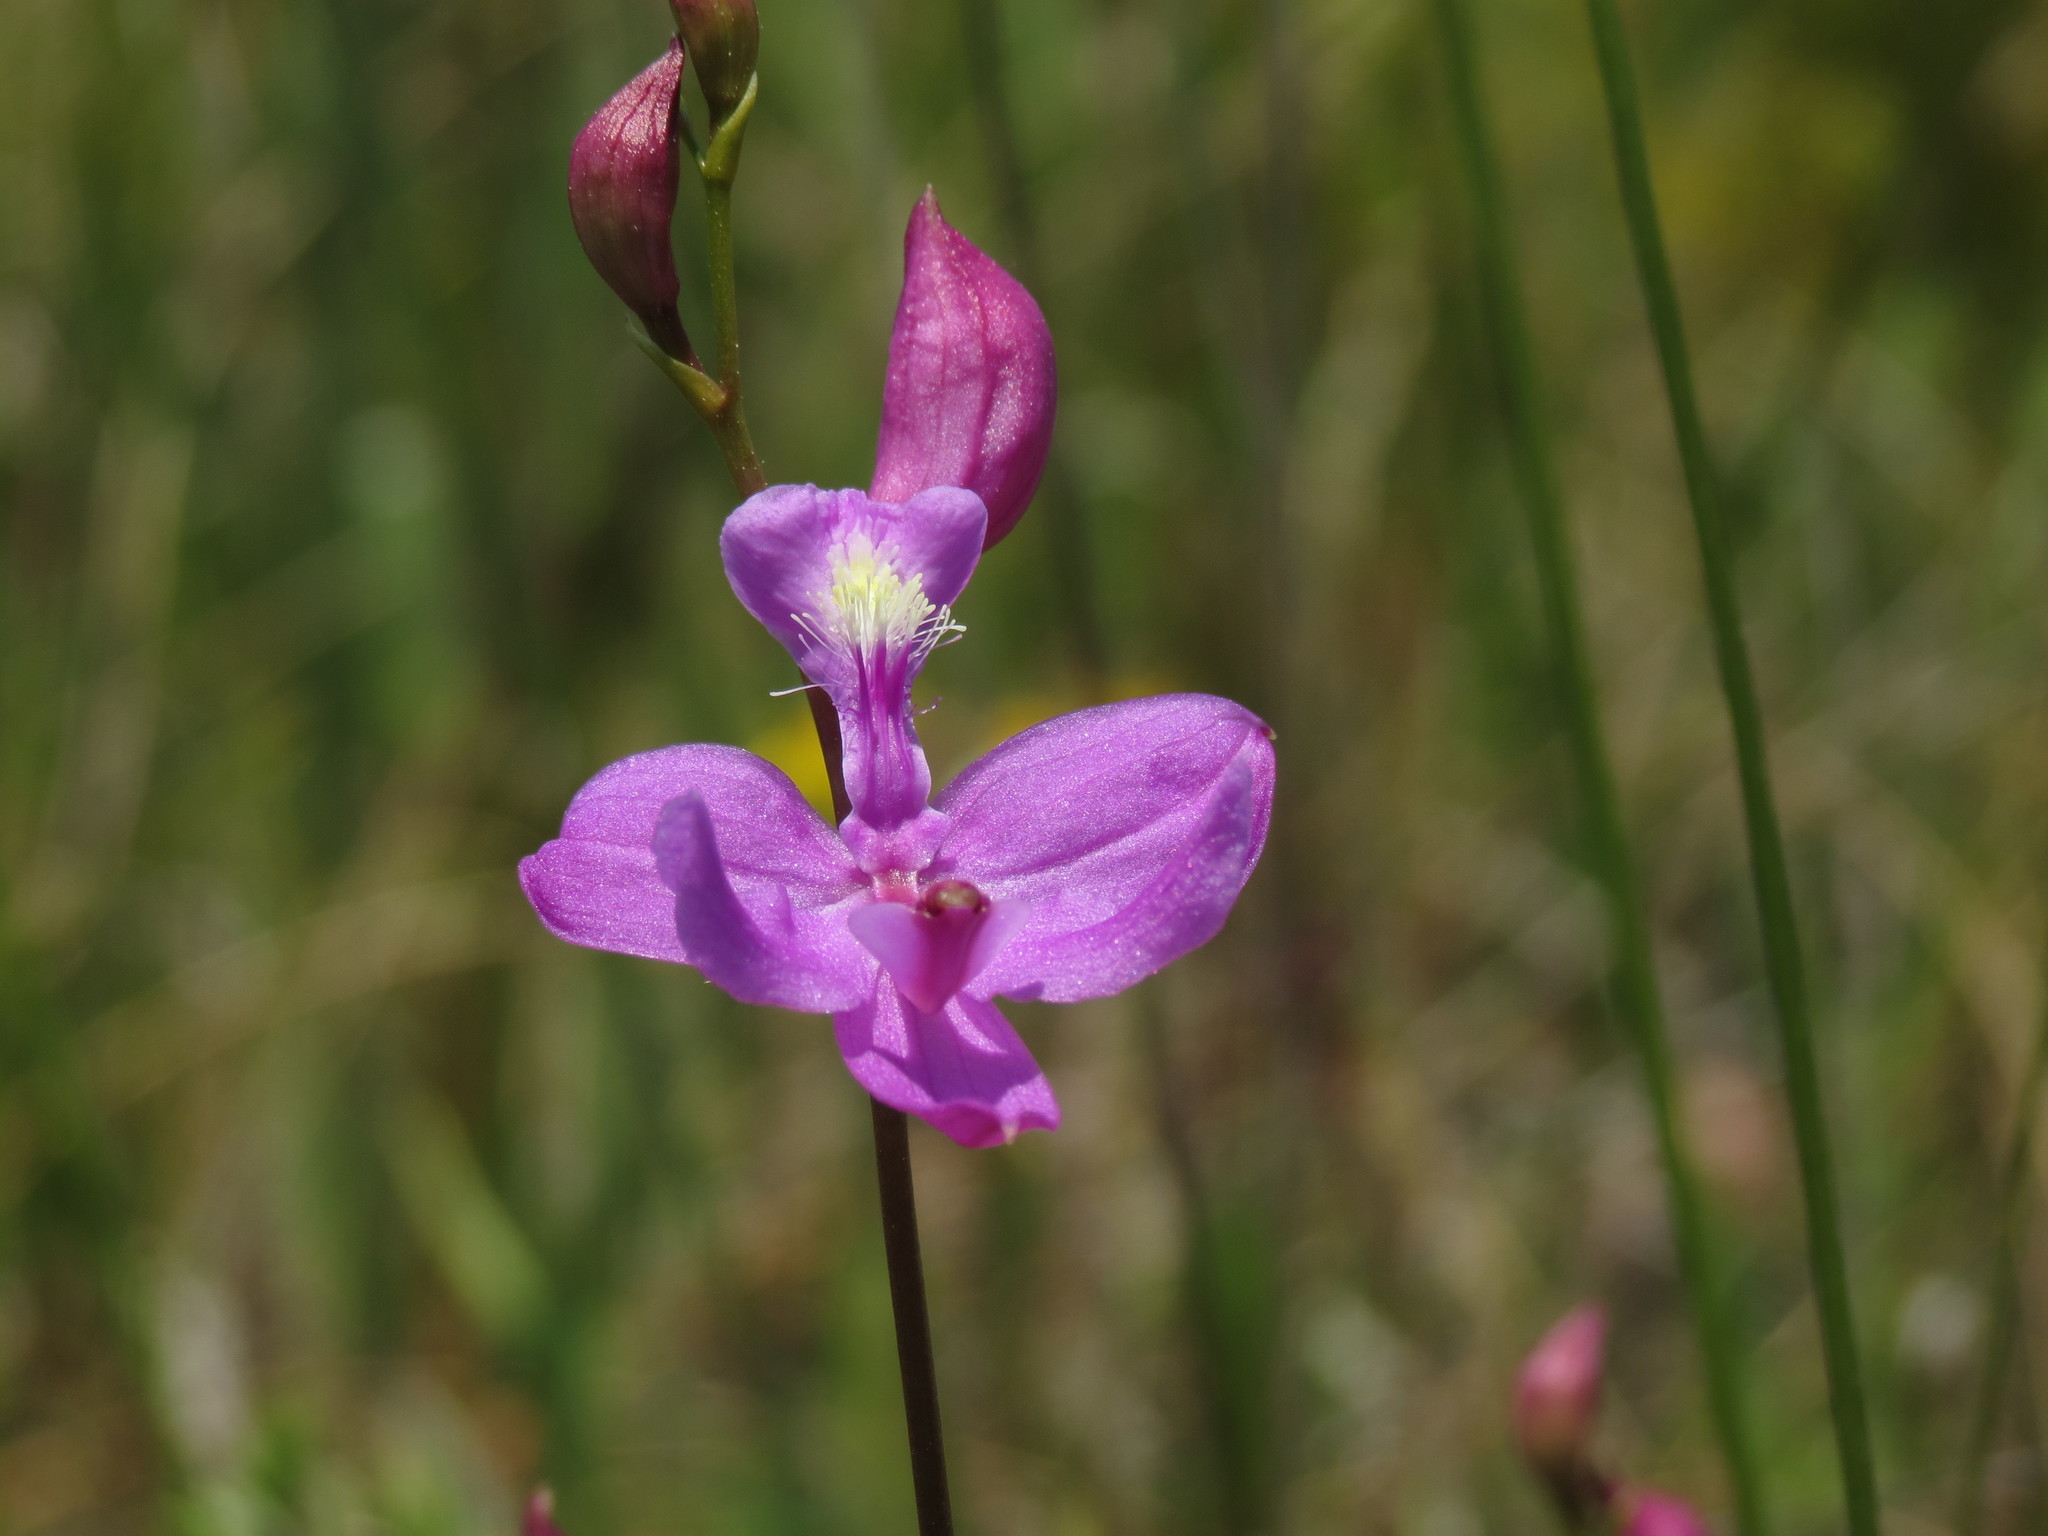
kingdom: Plantae
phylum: Tracheophyta
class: Liliopsida
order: Asparagales
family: Orchidaceae
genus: Calopogon
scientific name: Calopogon tuberosus
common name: Grass-pink
